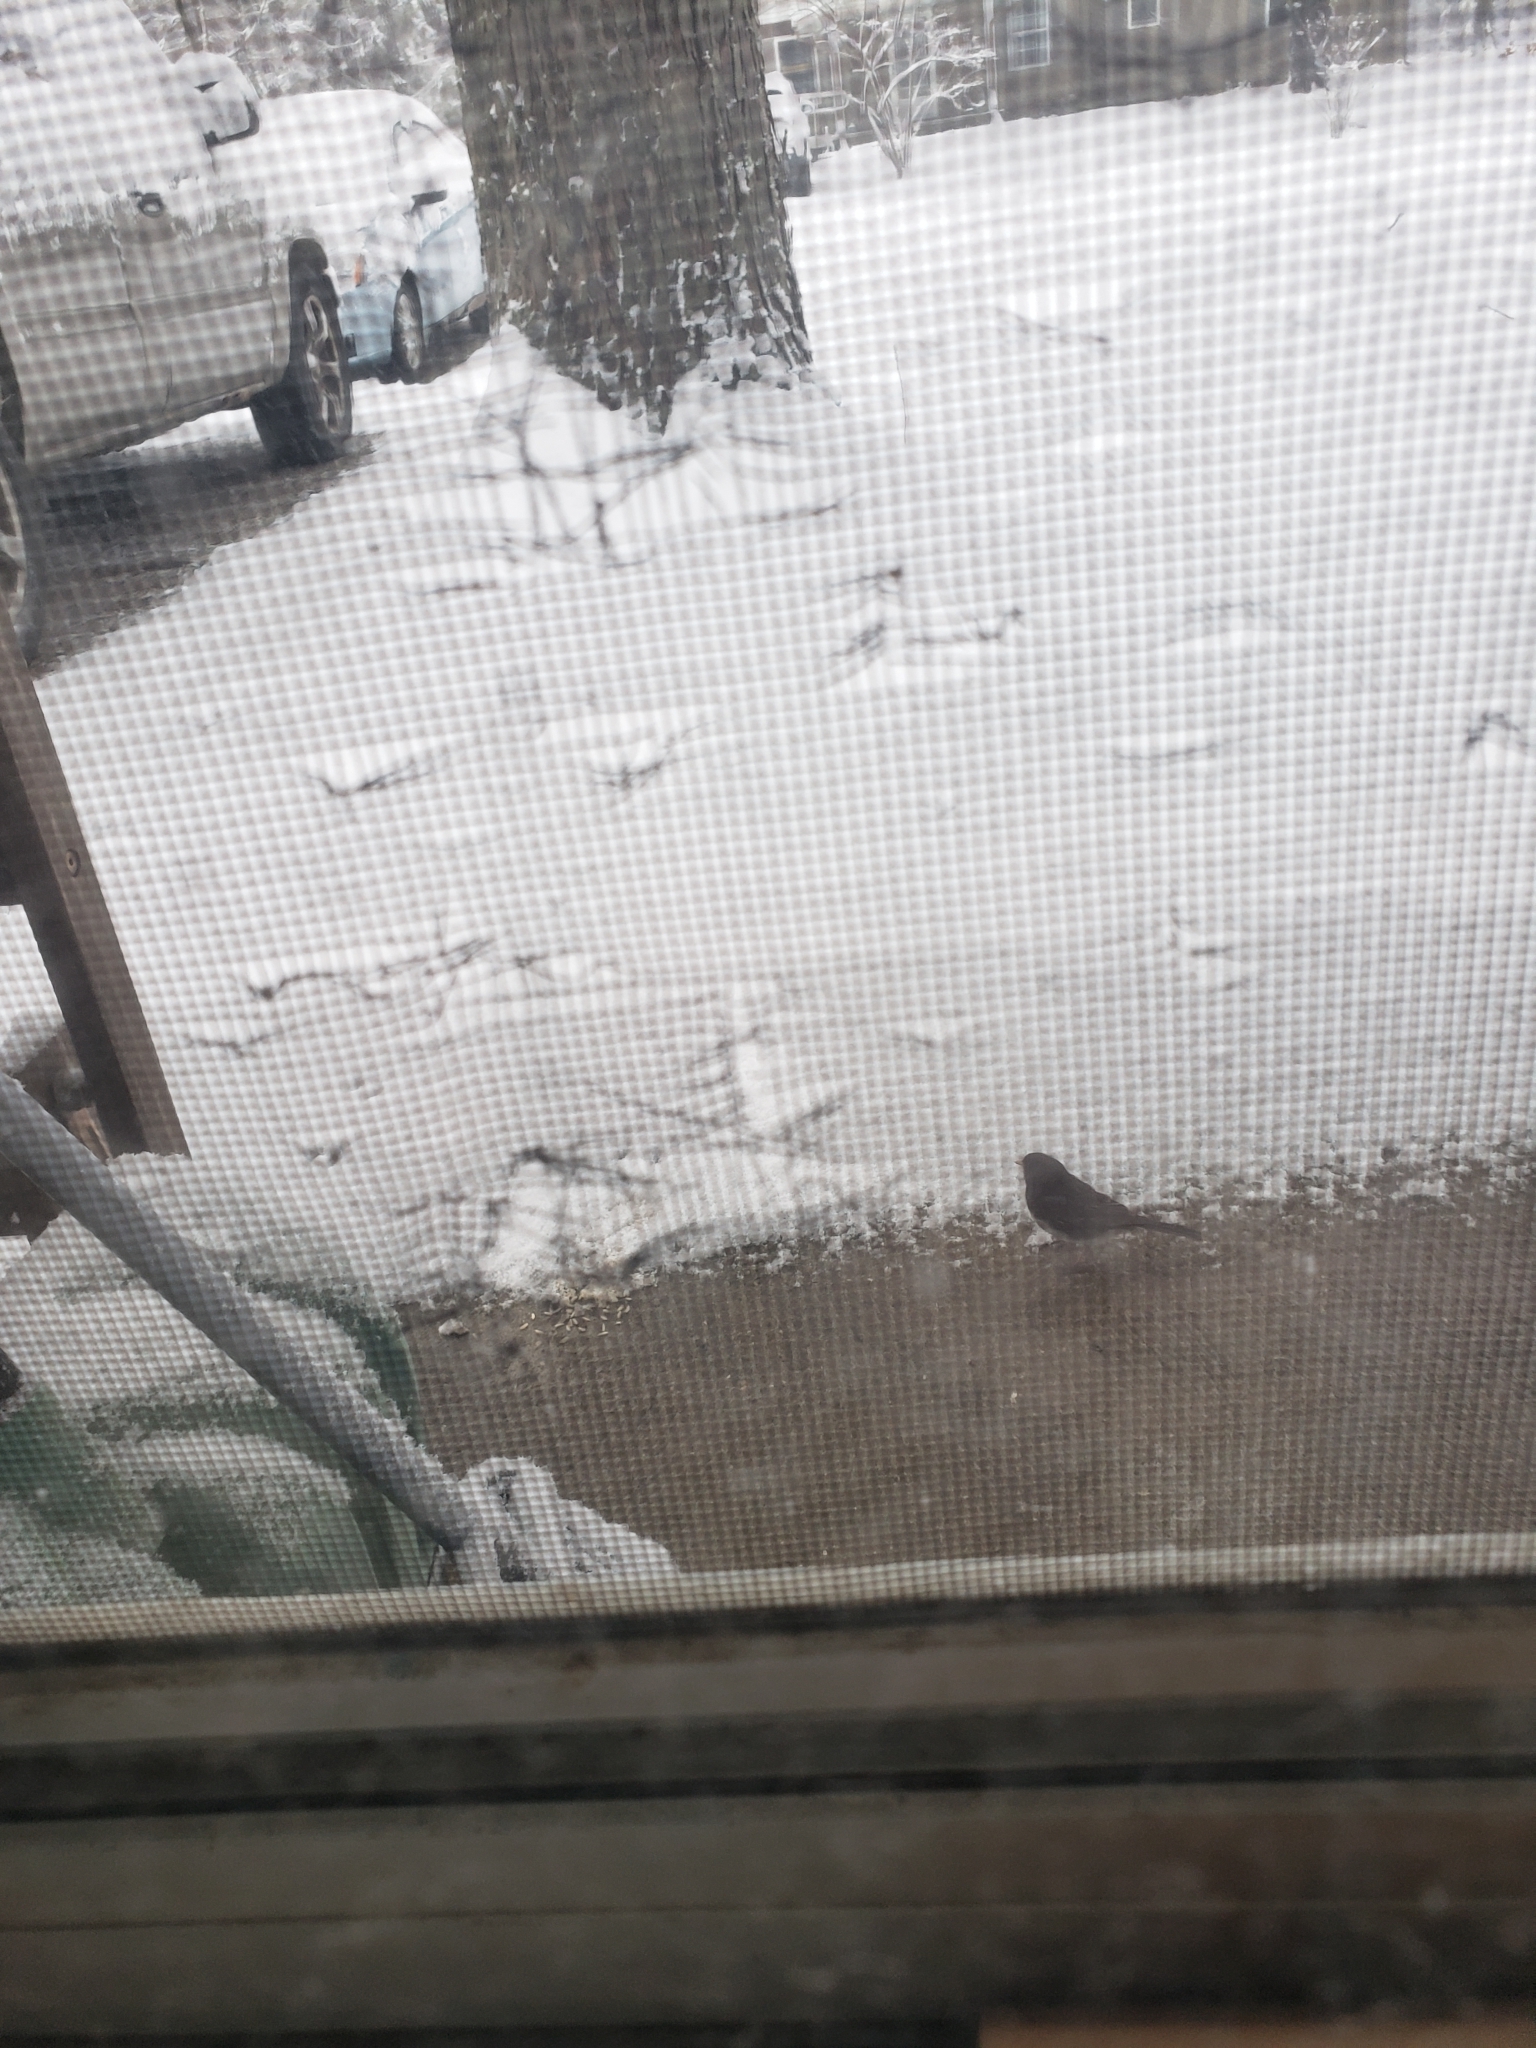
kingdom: Animalia
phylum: Chordata
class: Aves
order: Passeriformes
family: Passerellidae
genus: Junco
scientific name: Junco hyemalis
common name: Dark-eyed junco
